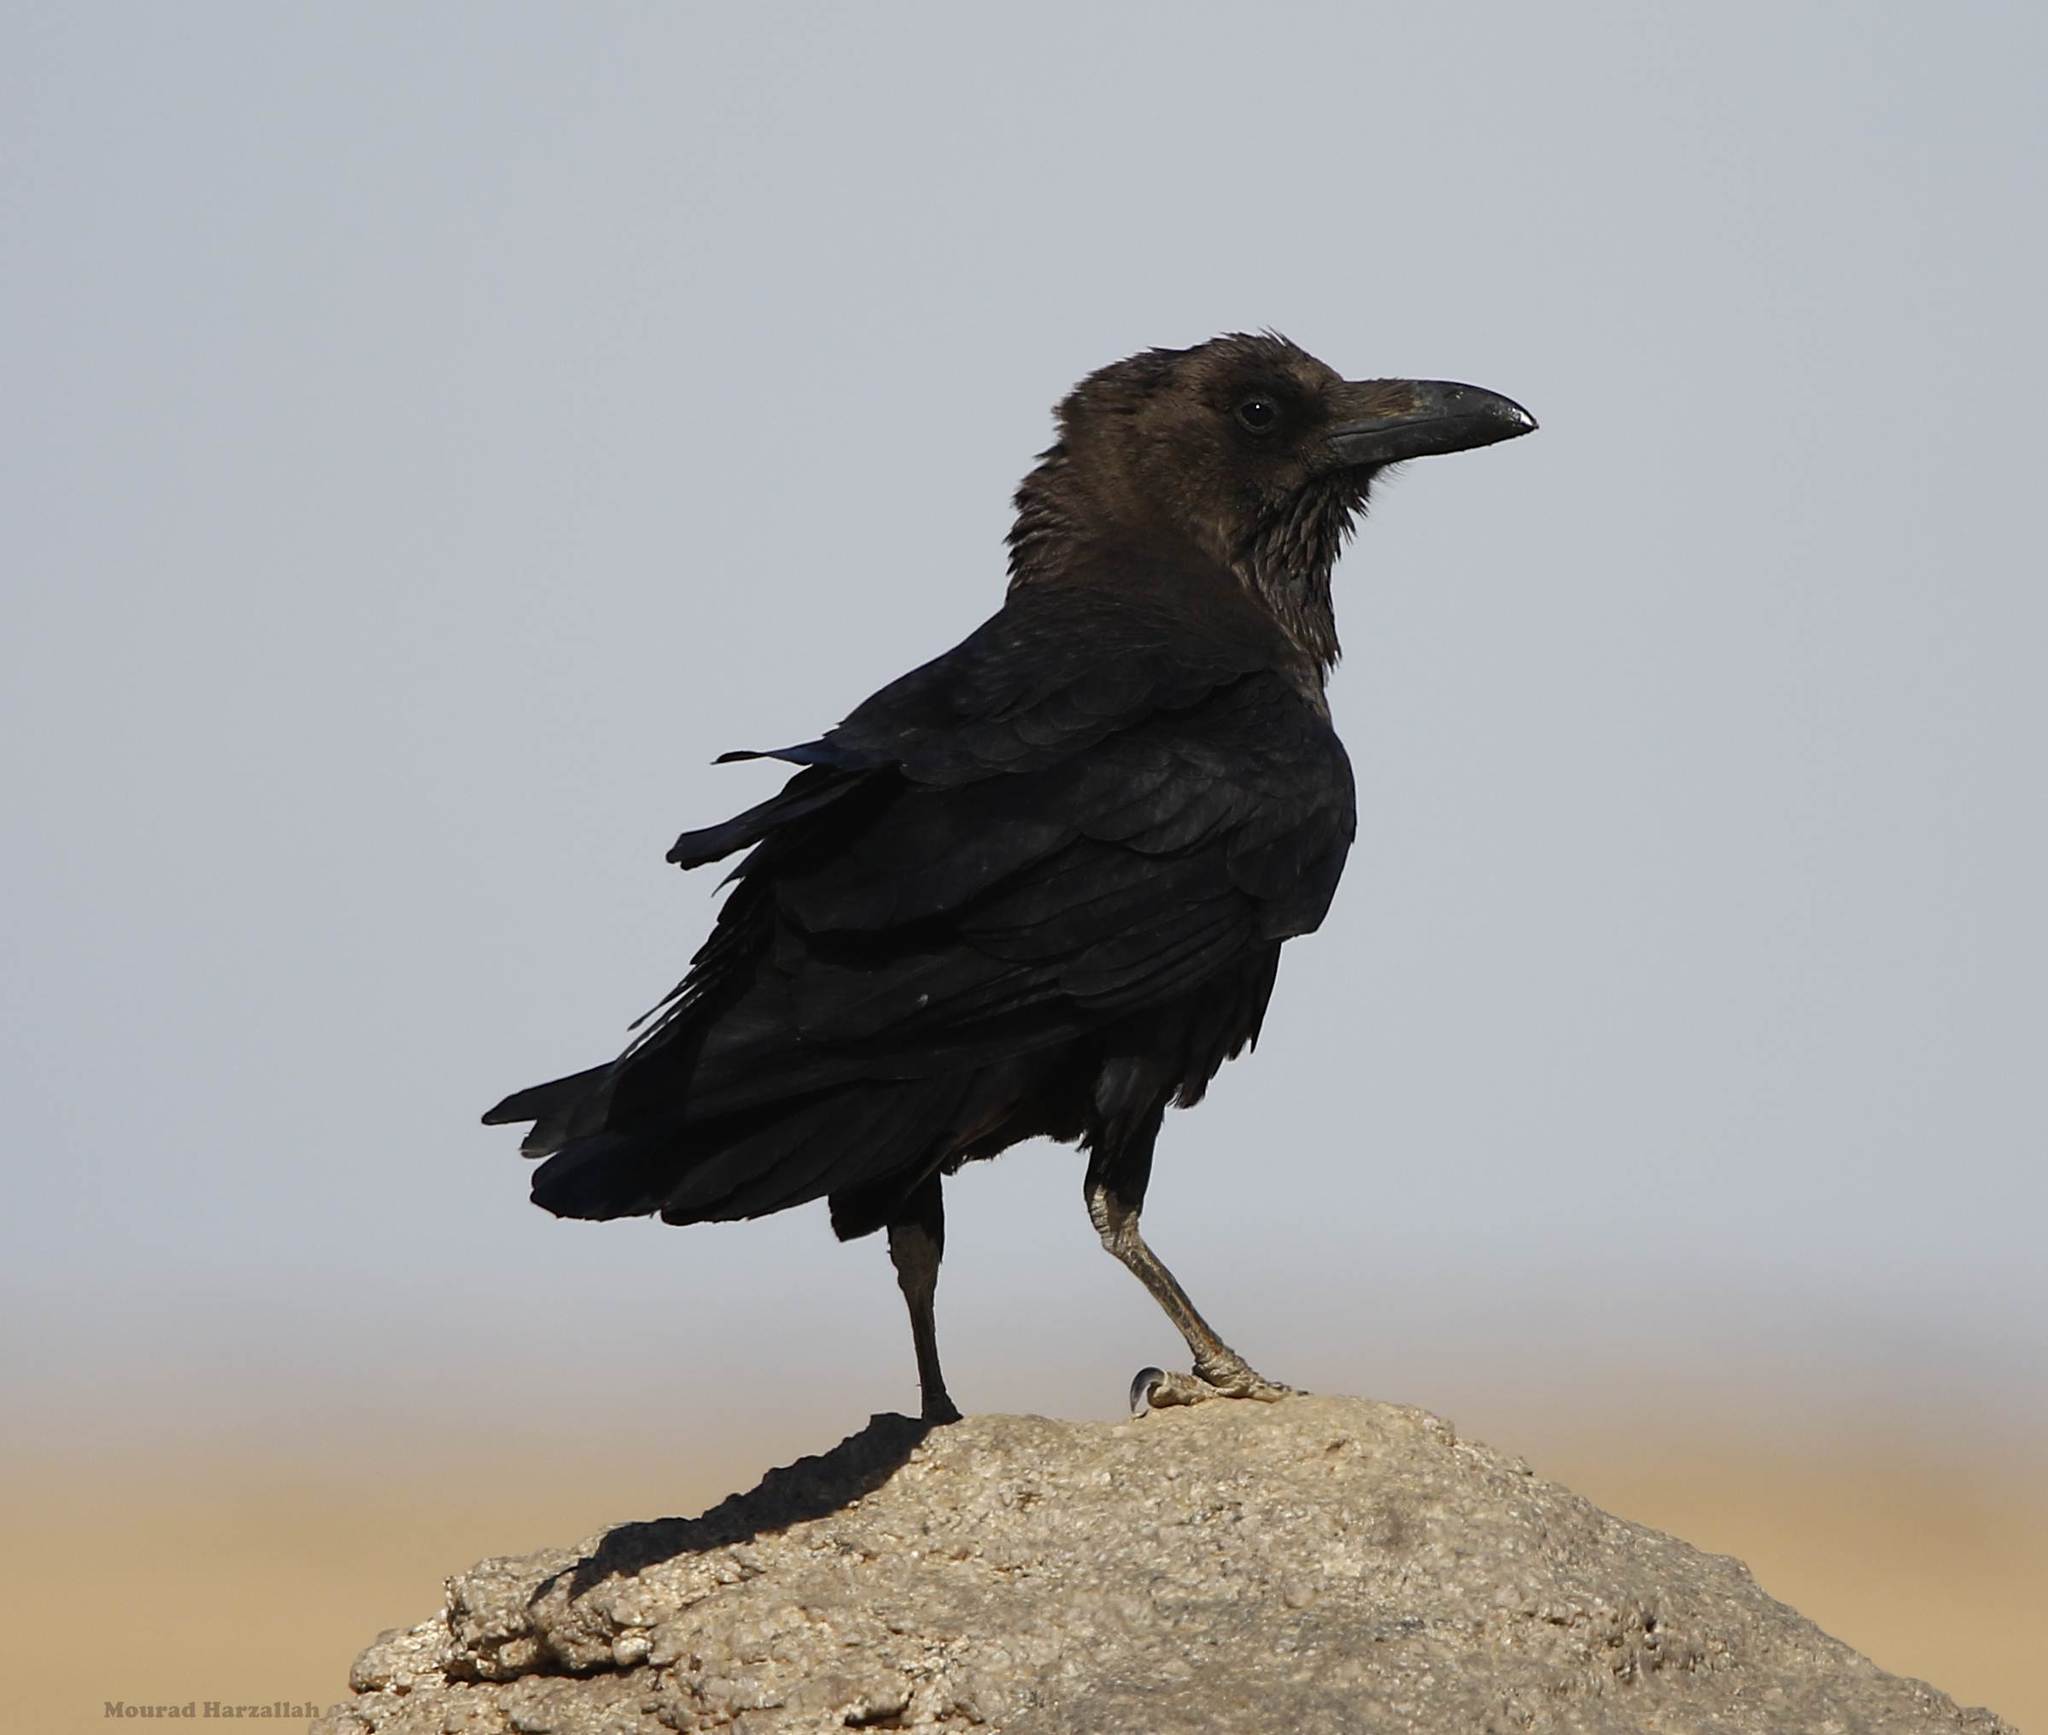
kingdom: Animalia
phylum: Chordata
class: Aves
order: Passeriformes
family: Corvidae
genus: Corvus
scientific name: Corvus ruficollis
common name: Brown-necked raven
